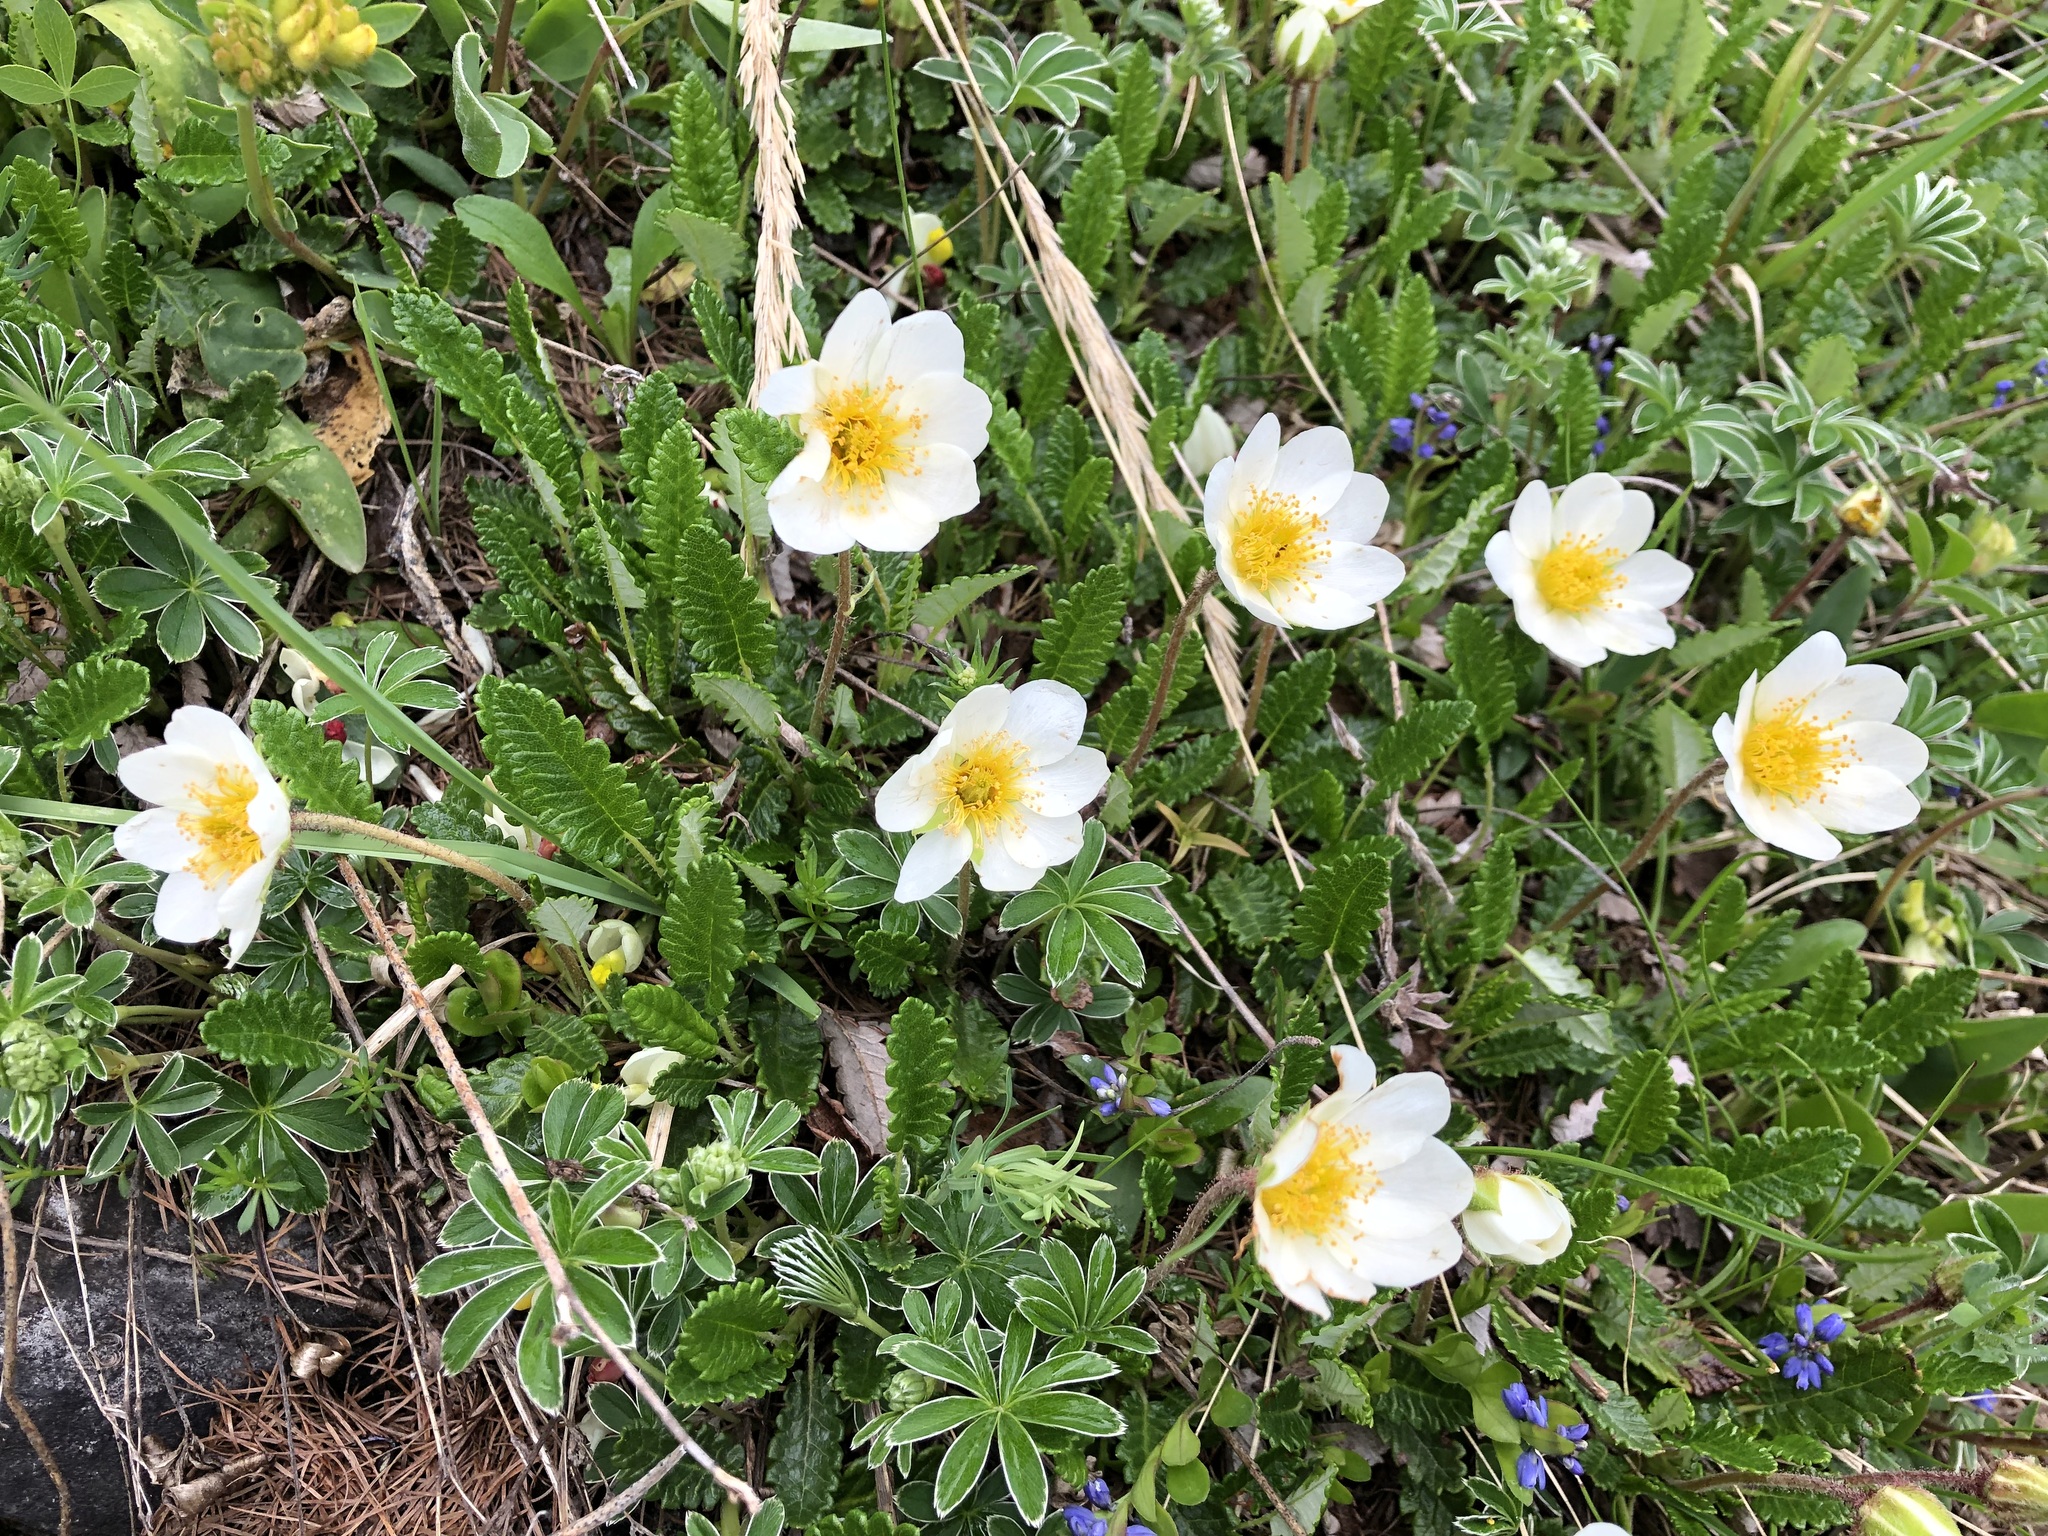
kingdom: Plantae
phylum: Tracheophyta
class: Magnoliopsida
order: Rosales
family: Rosaceae
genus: Dryas
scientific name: Dryas octopetala
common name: Eight-petal mountain-avens
